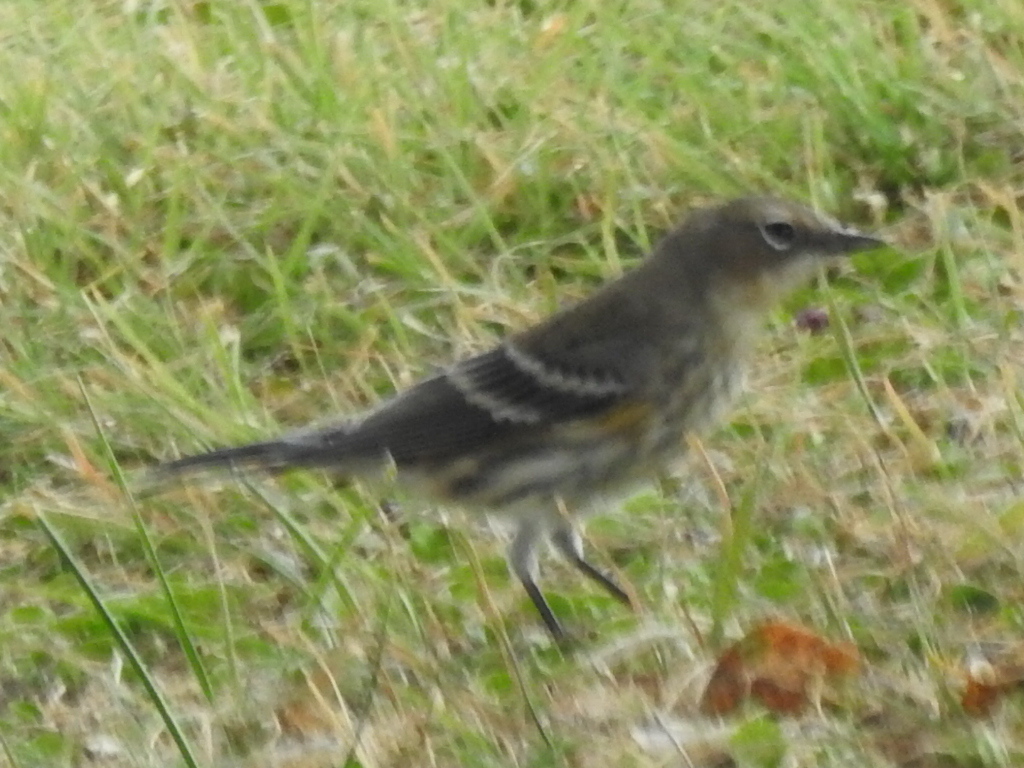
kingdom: Animalia
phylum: Chordata
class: Aves
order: Passeriformes
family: Parulidae
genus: Setophaga
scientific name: Setophaga coronata
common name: Myrtle warbler
